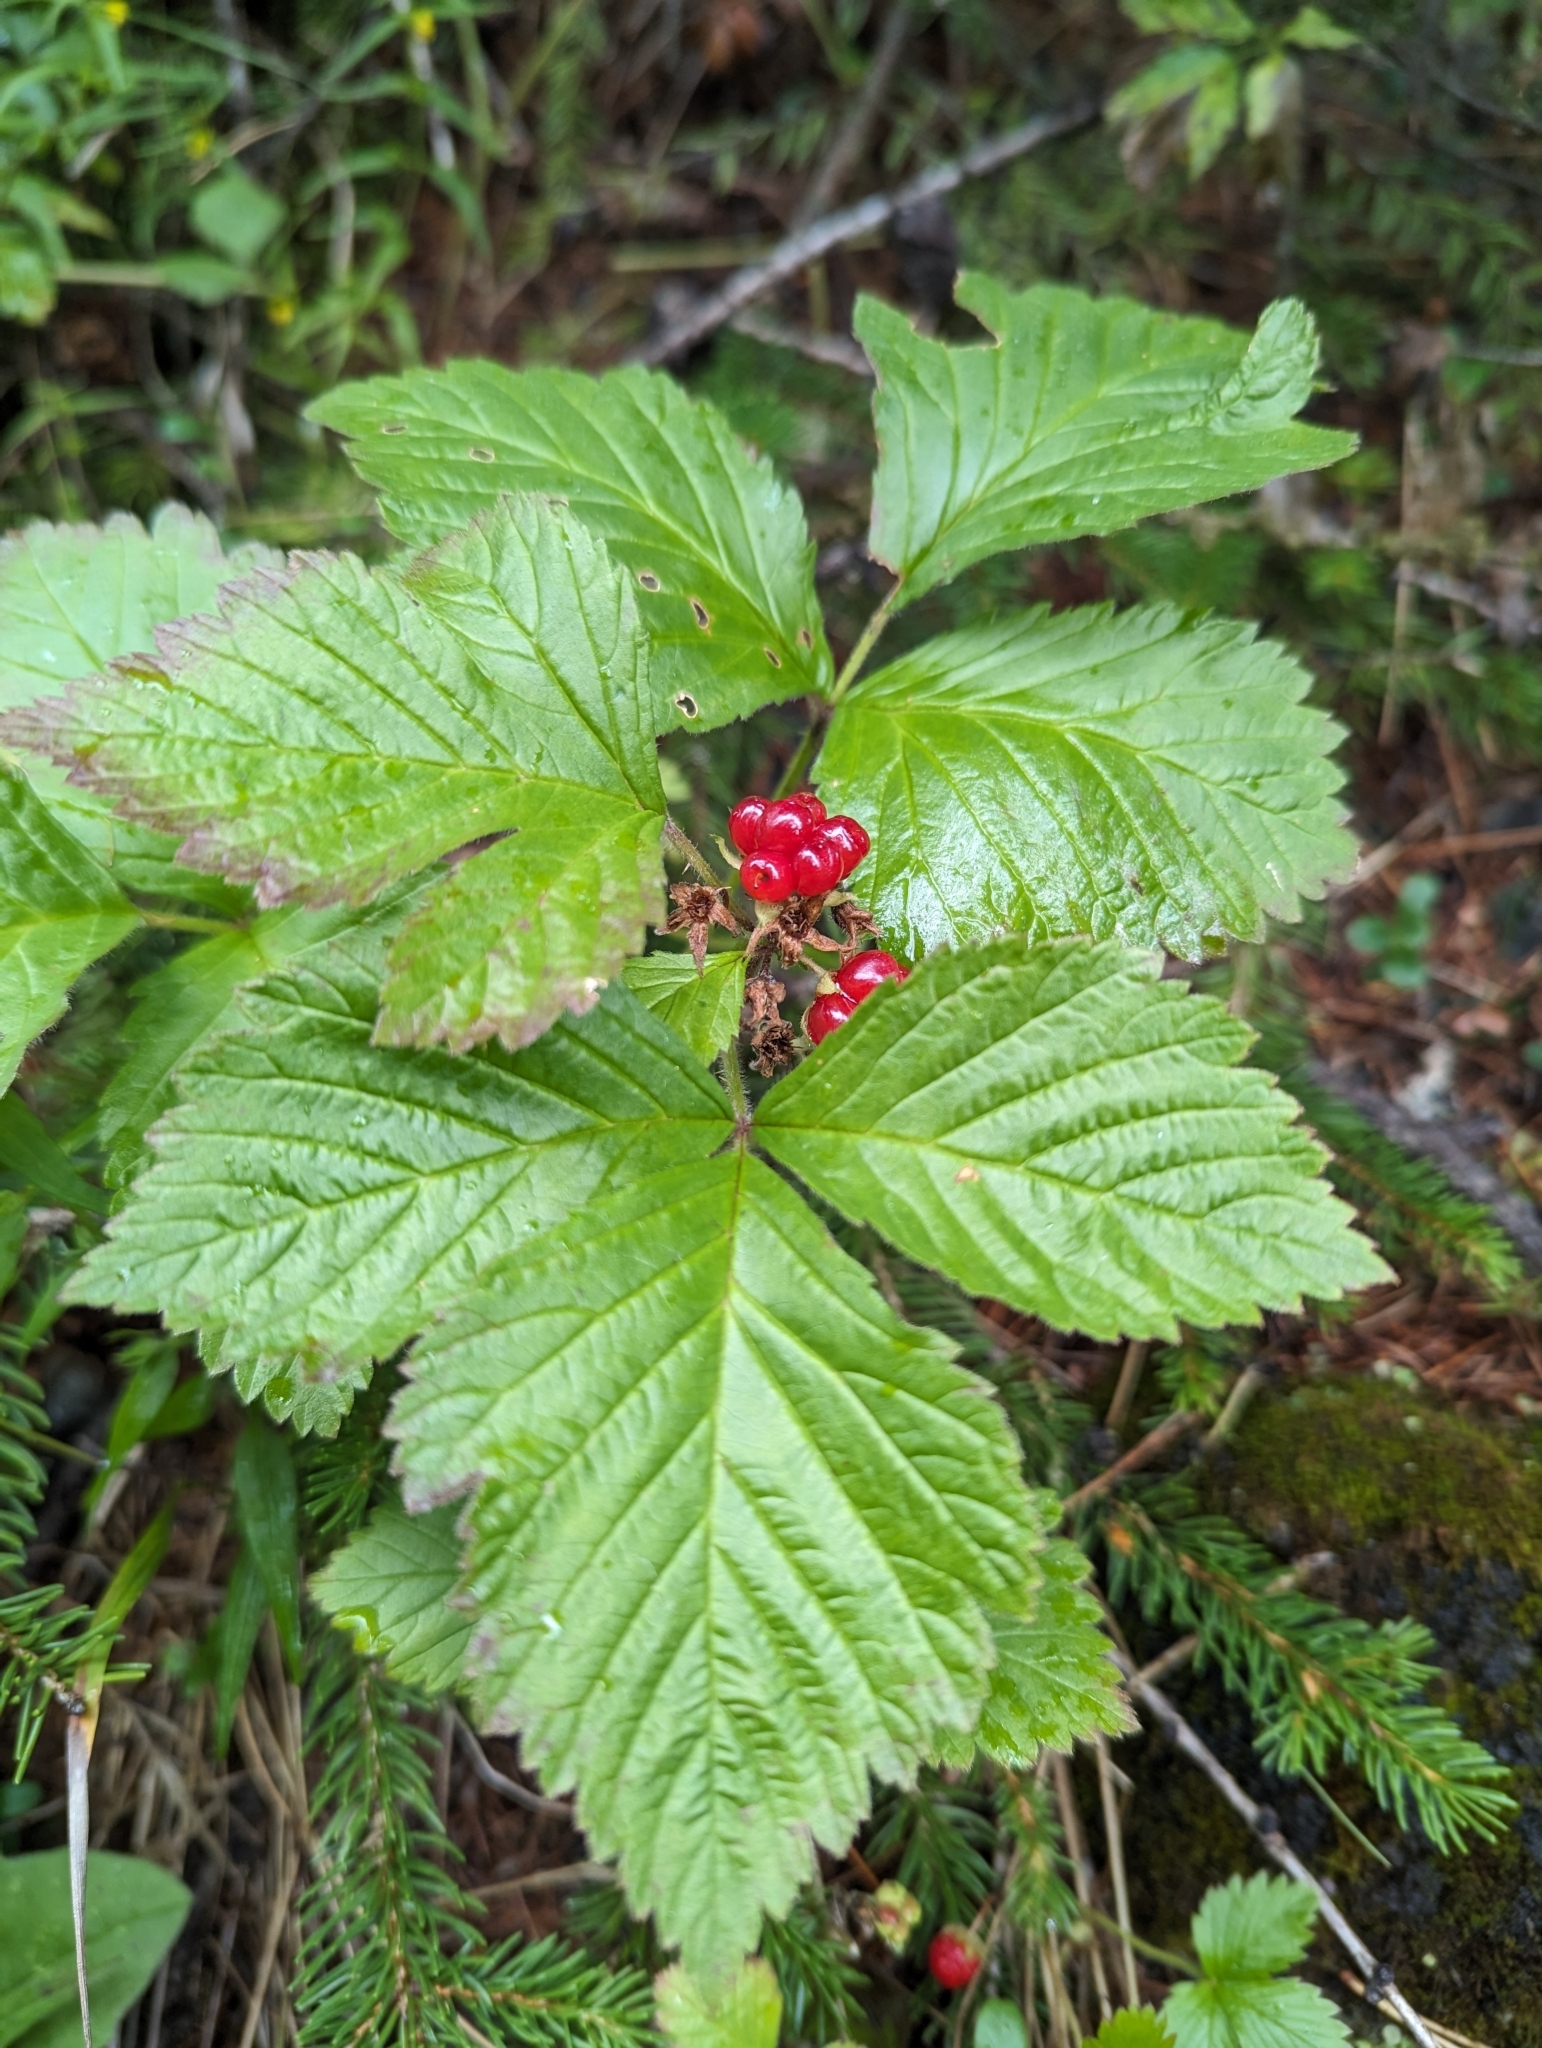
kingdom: Plantae
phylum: Tracheophyta
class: Magnoliopsida
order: Rosales
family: Rosaceae
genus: Rubus
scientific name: Rubus saxatilis
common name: Stone bramble
